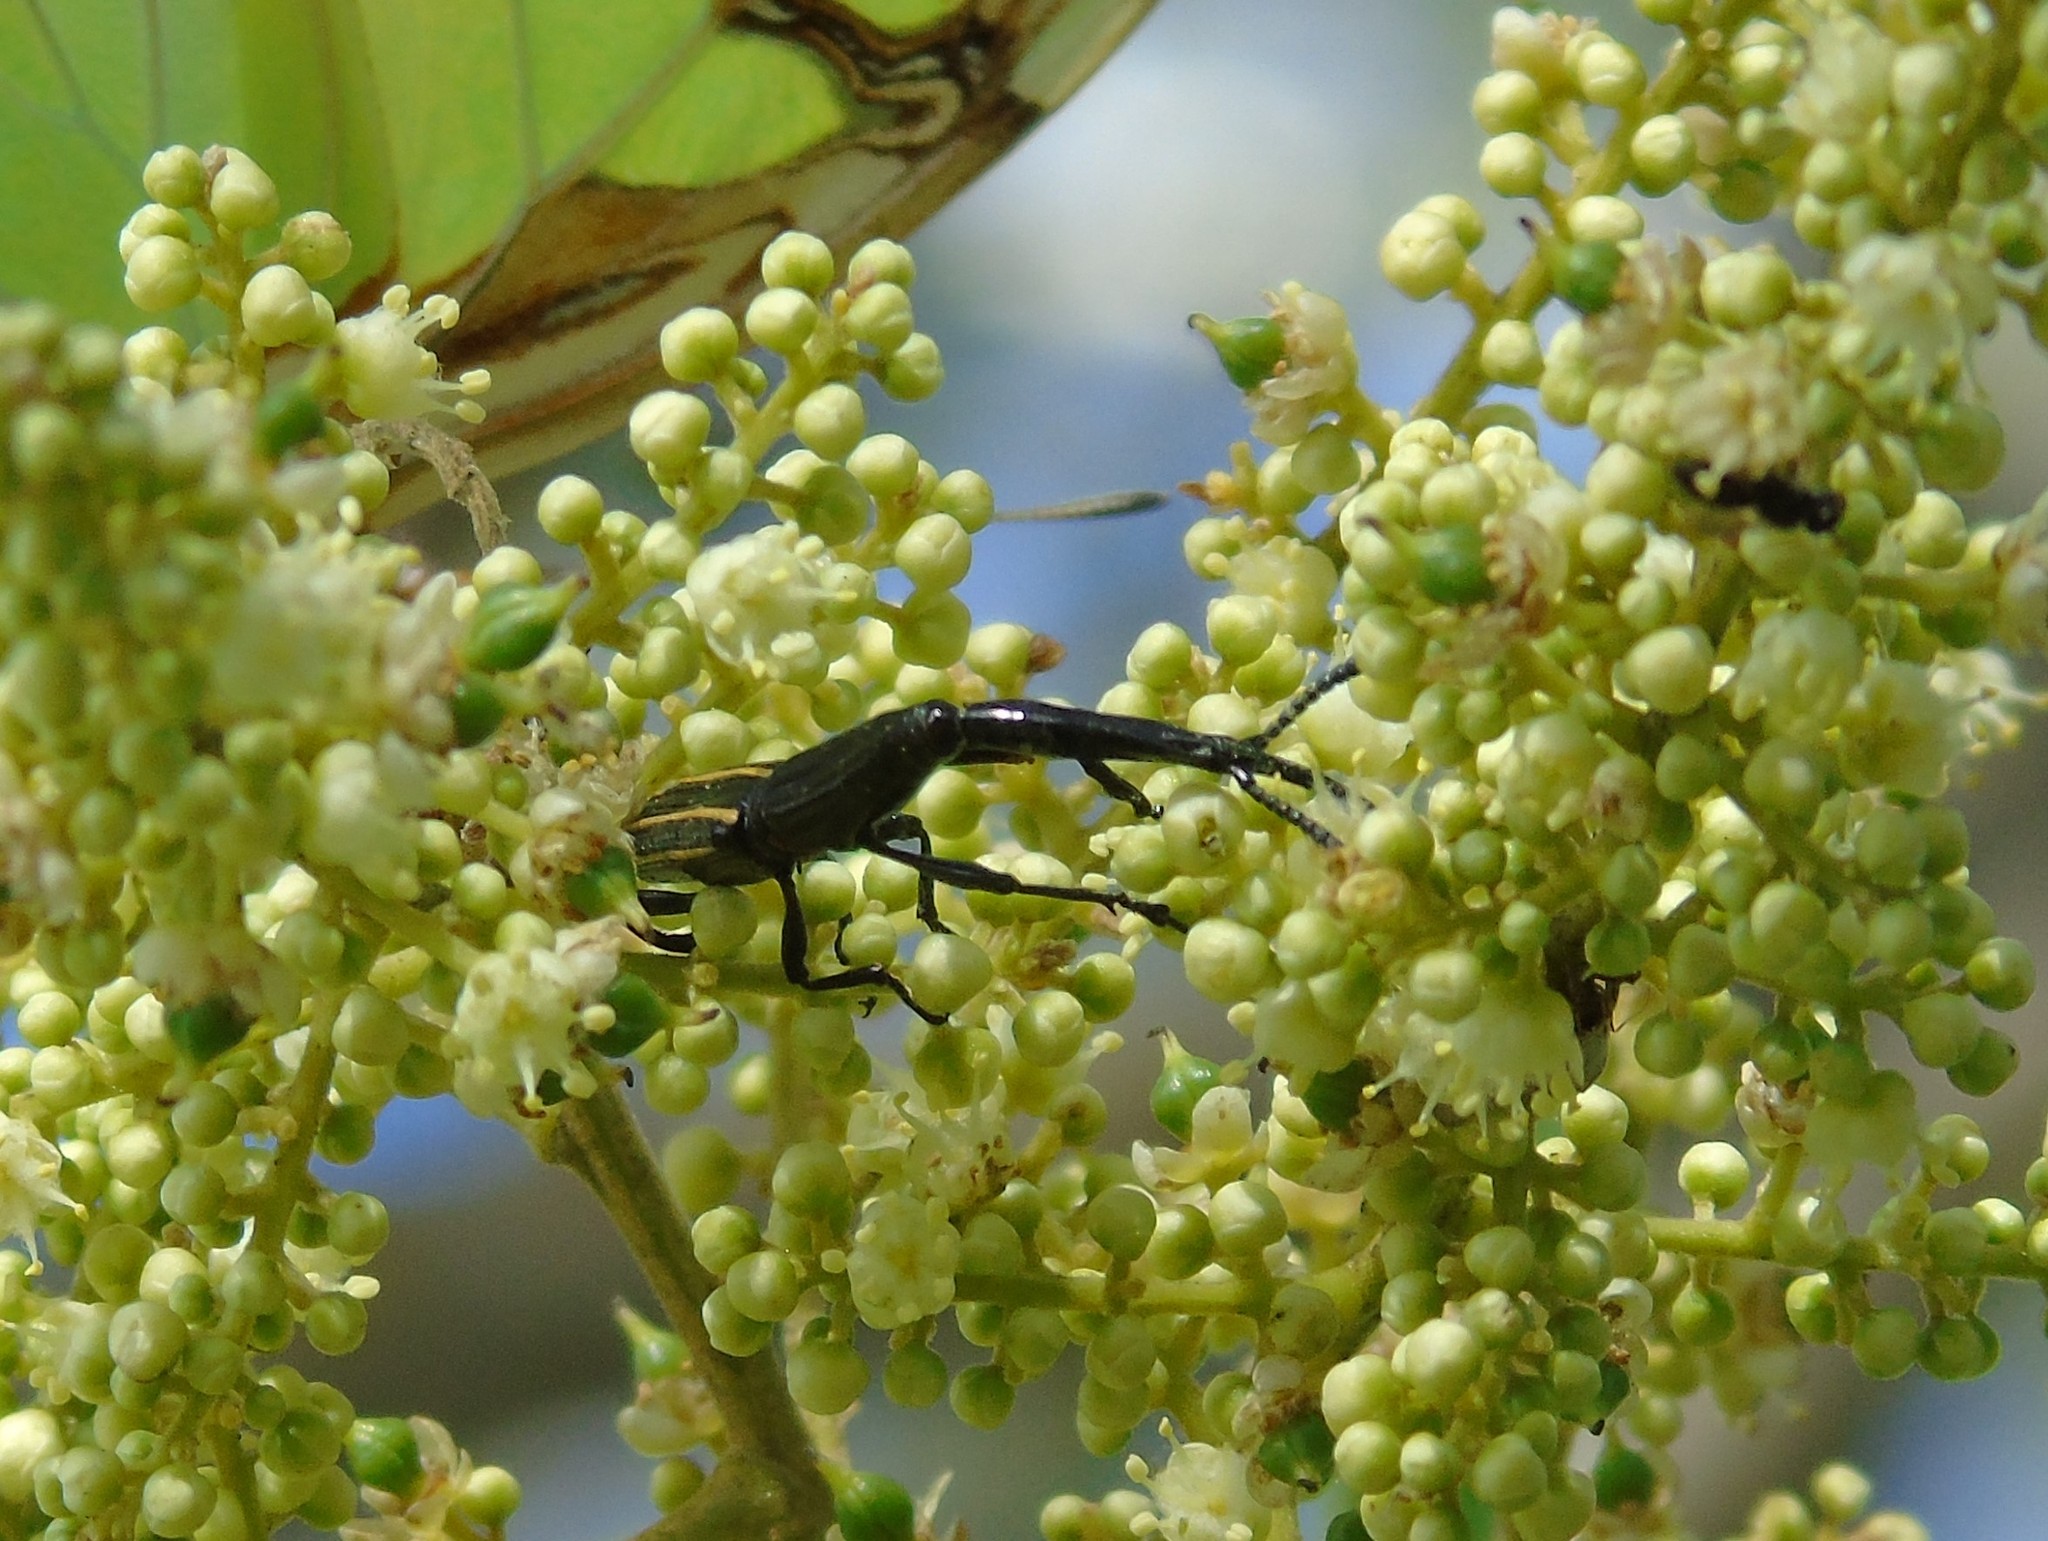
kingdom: Animalia
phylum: Arthropoda
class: Insecta
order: Coleoptera
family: Brentidae
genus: Brentus
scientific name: Brentus
